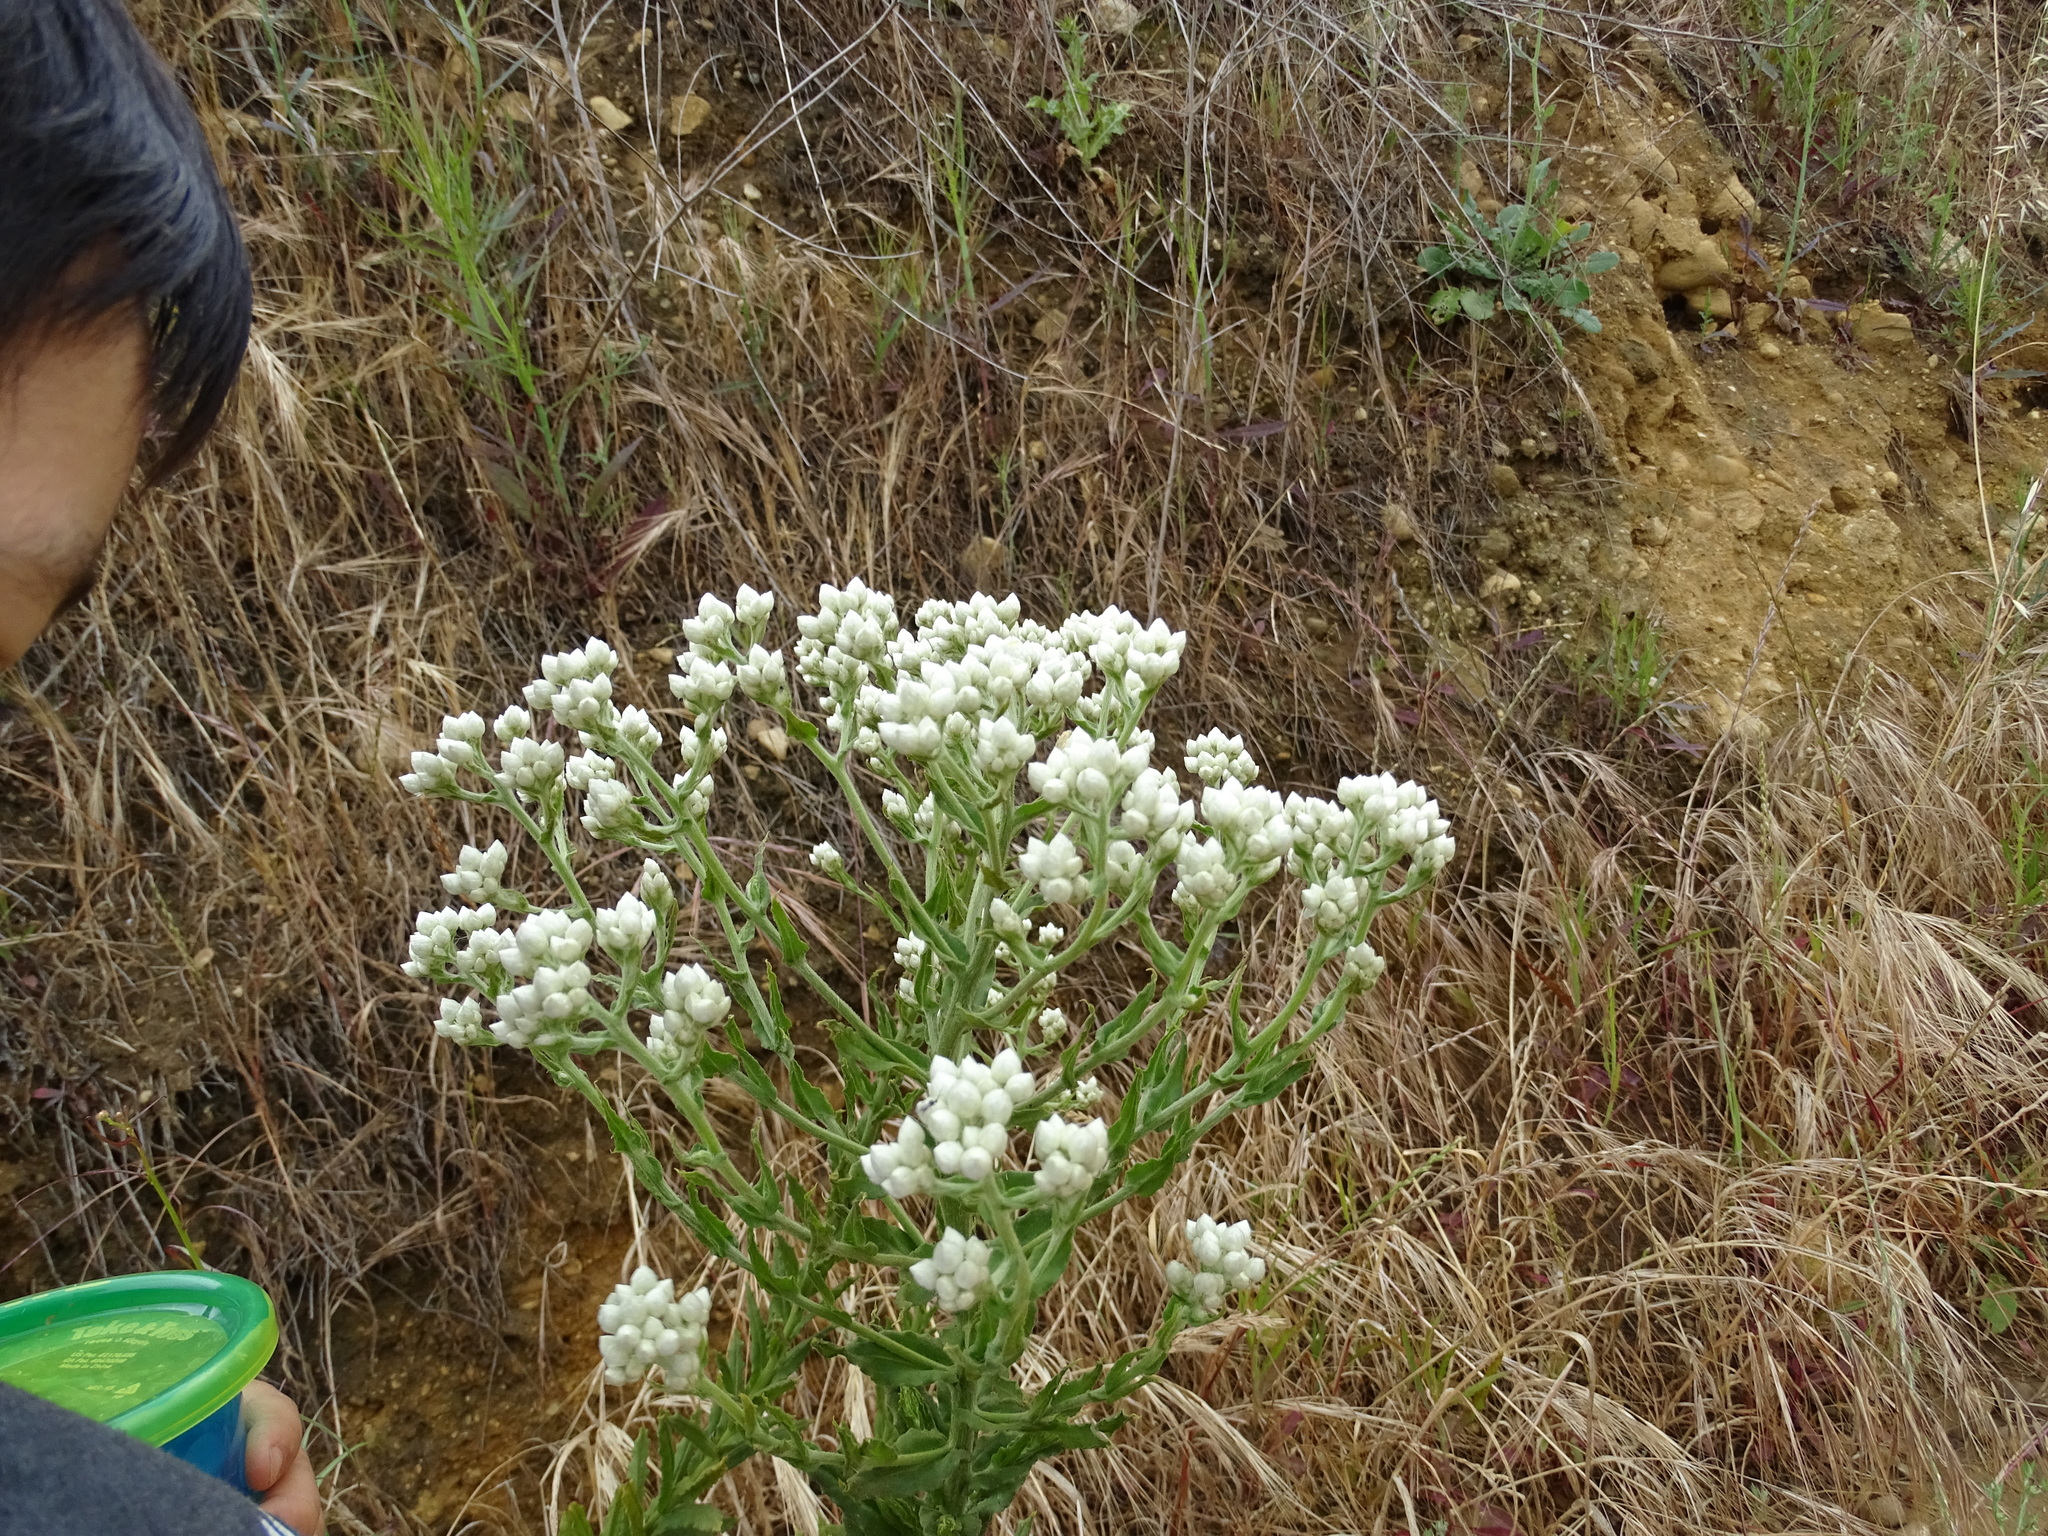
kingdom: Plantae
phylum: Tracheophyta
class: Magnoliopsida
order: Asterales
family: Asteraceae
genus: Pseudognaphalium
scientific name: Pseudognaphalium californicum
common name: California rabbit-tobacco
